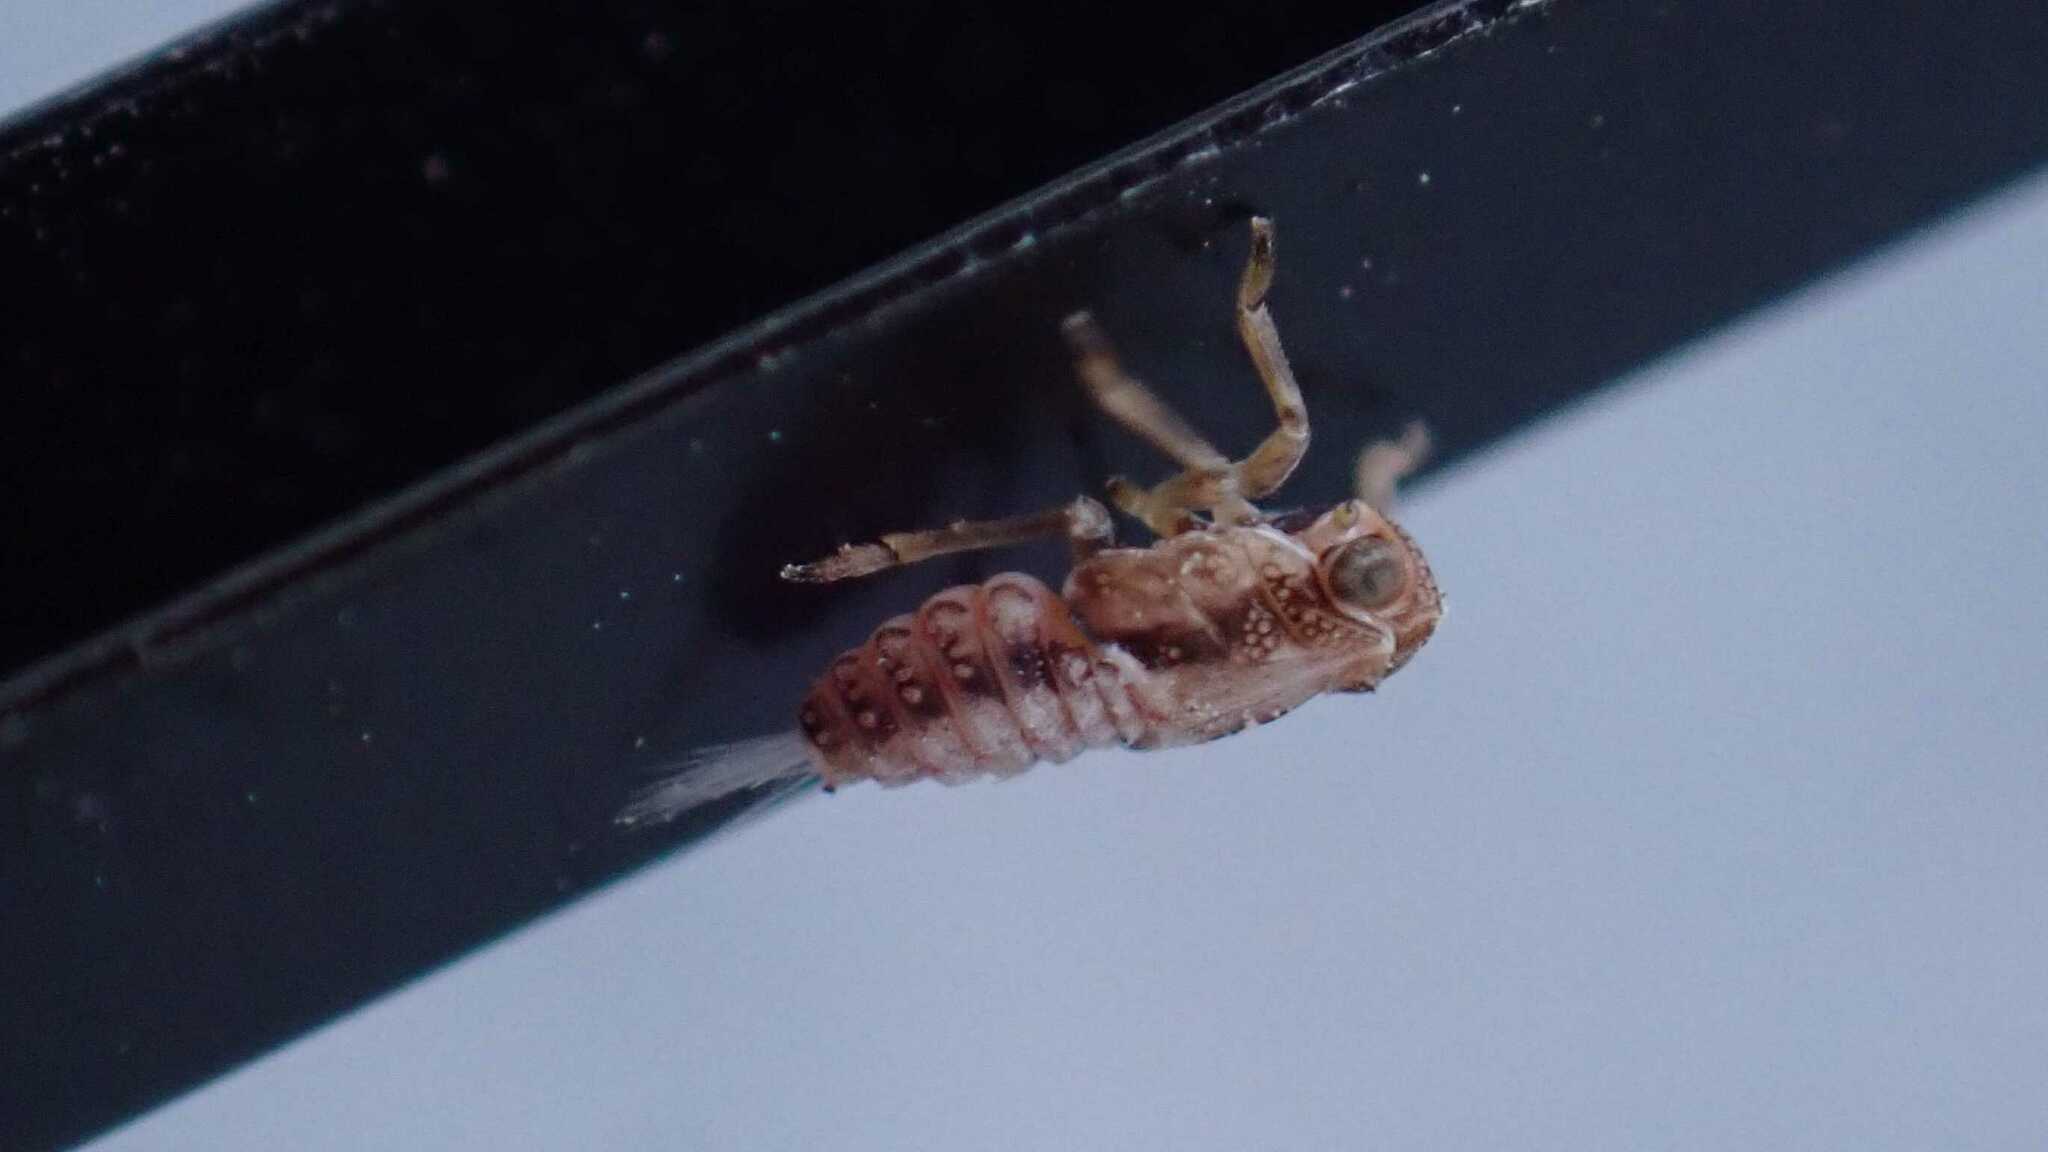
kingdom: Animalia
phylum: Arthropoda
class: Insecta
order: Hemiptera
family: Issidae
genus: Issus
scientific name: Issus coleoptratus
